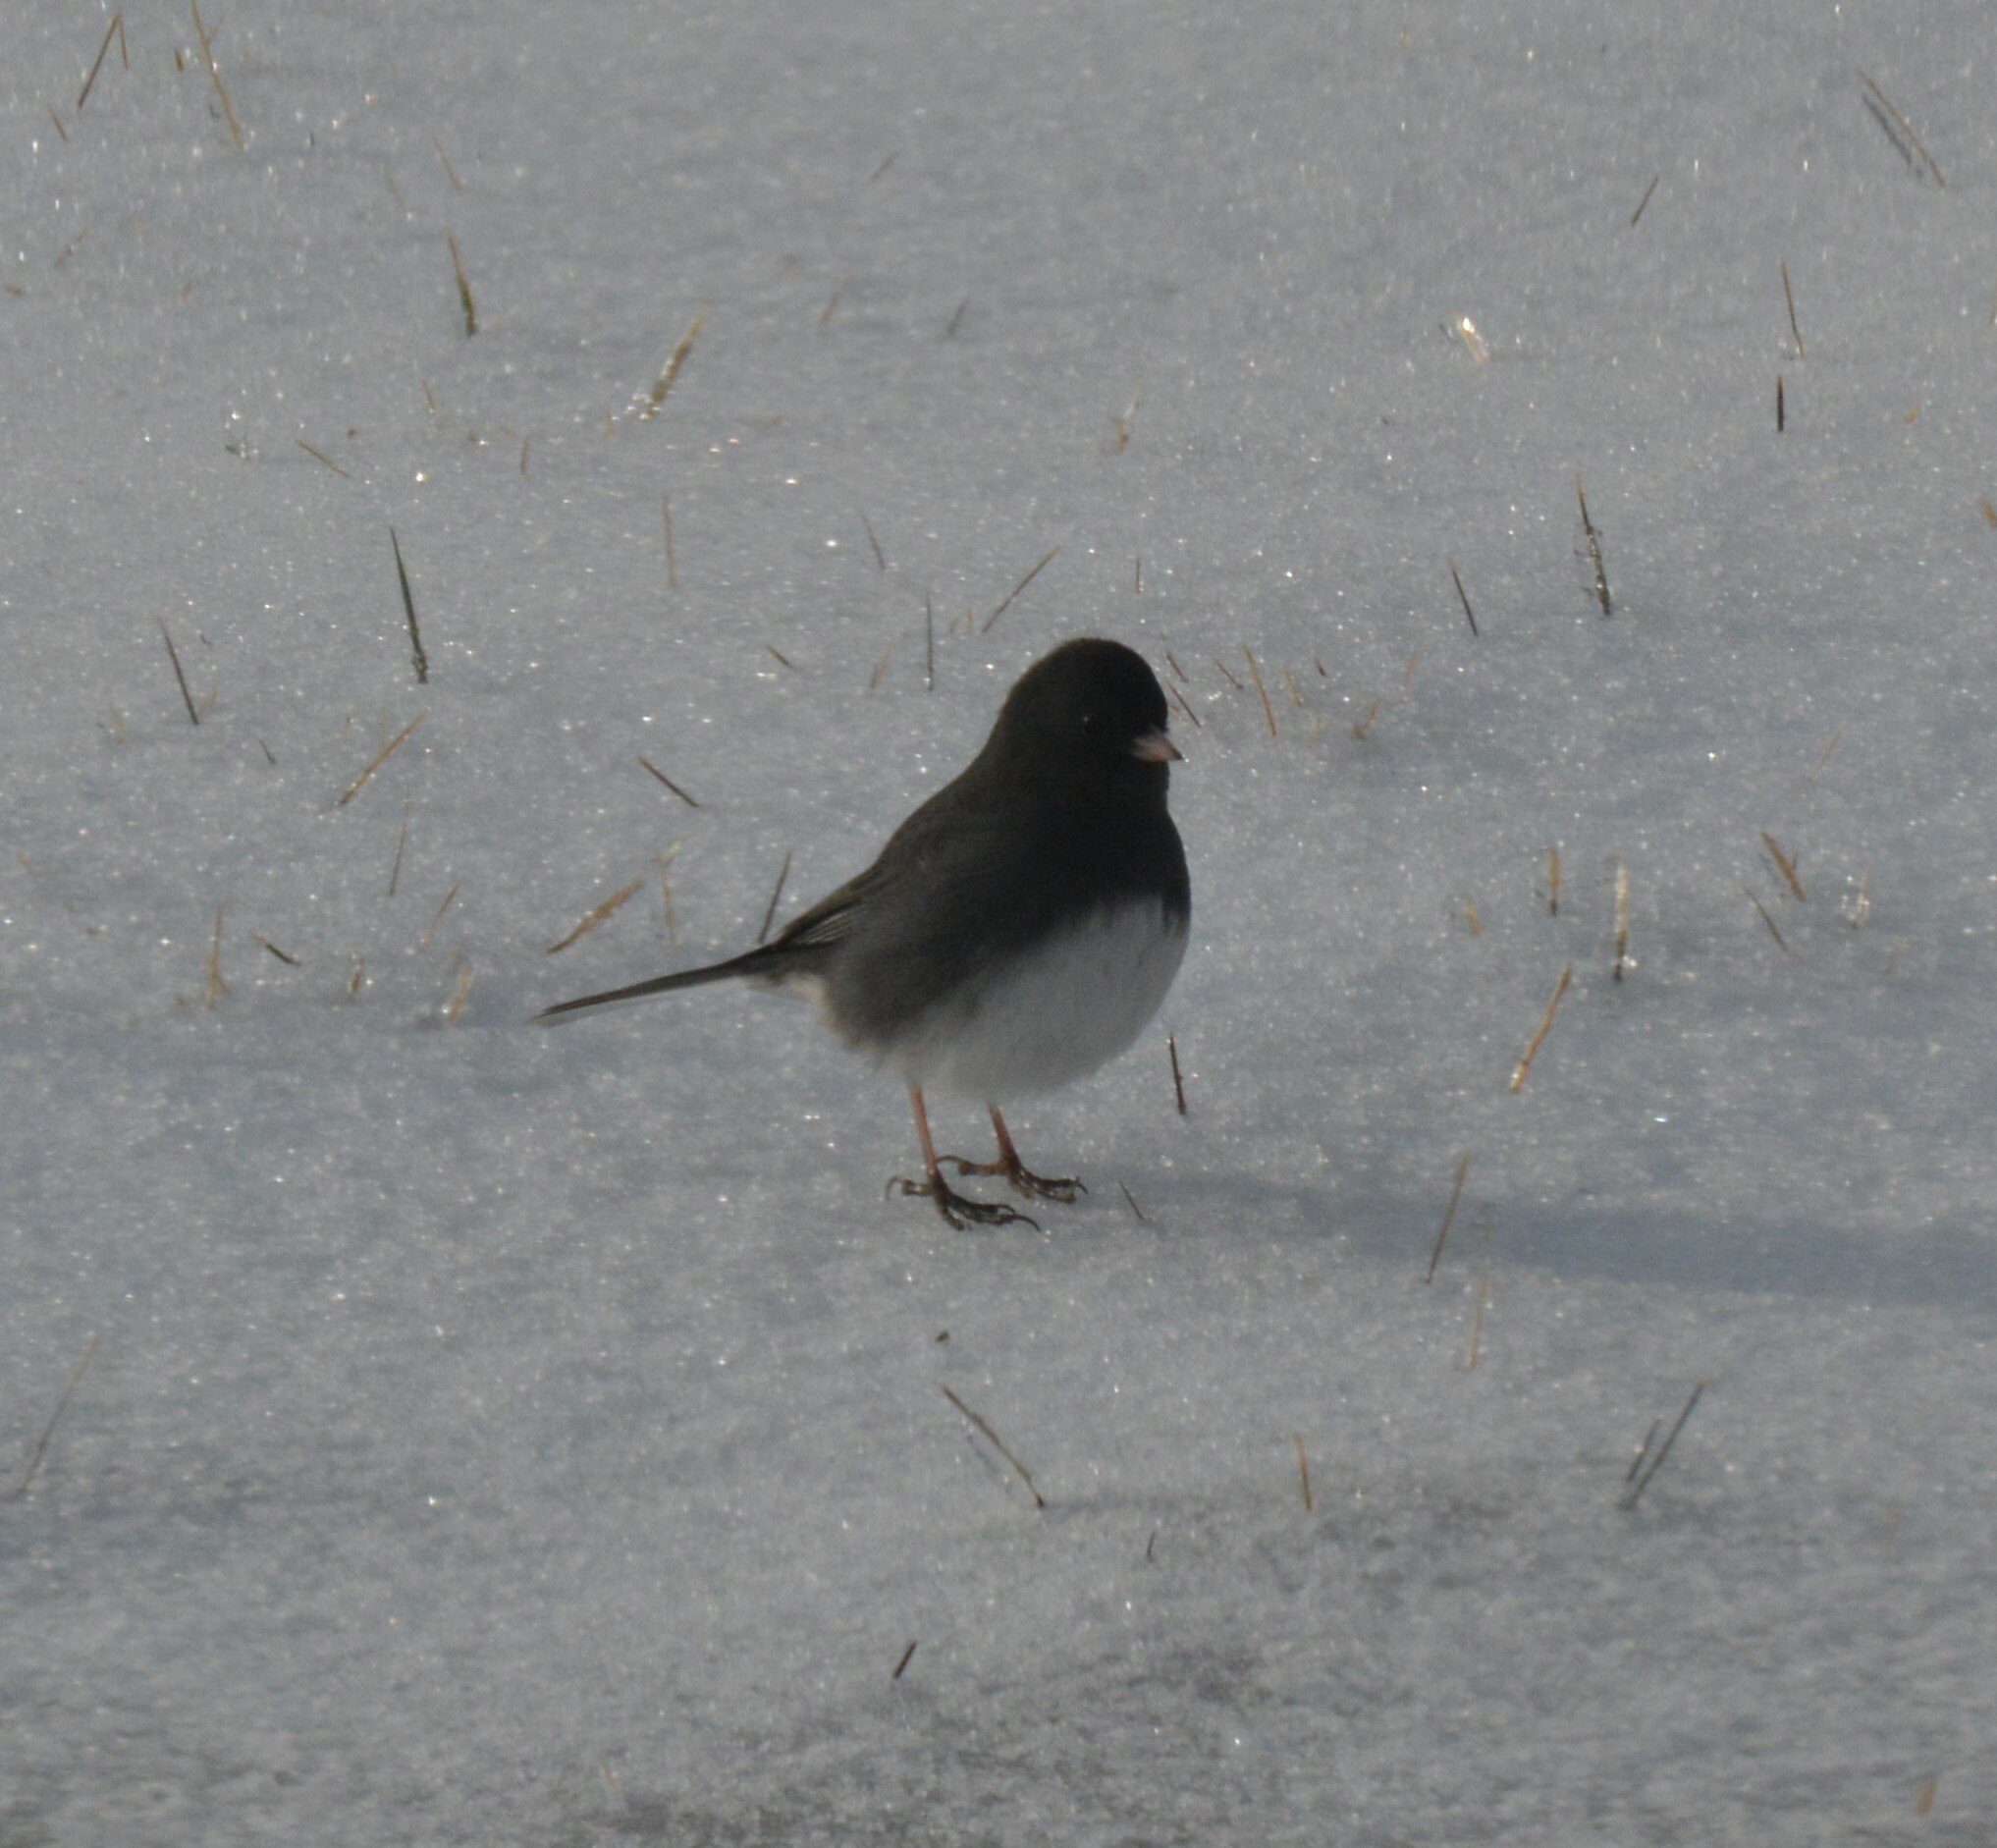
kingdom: Animalia
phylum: Chordata
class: Aves
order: Passeriformes
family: Passerellidae
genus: Junco
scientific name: Junco hyemalis
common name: Dark-eyed junco
